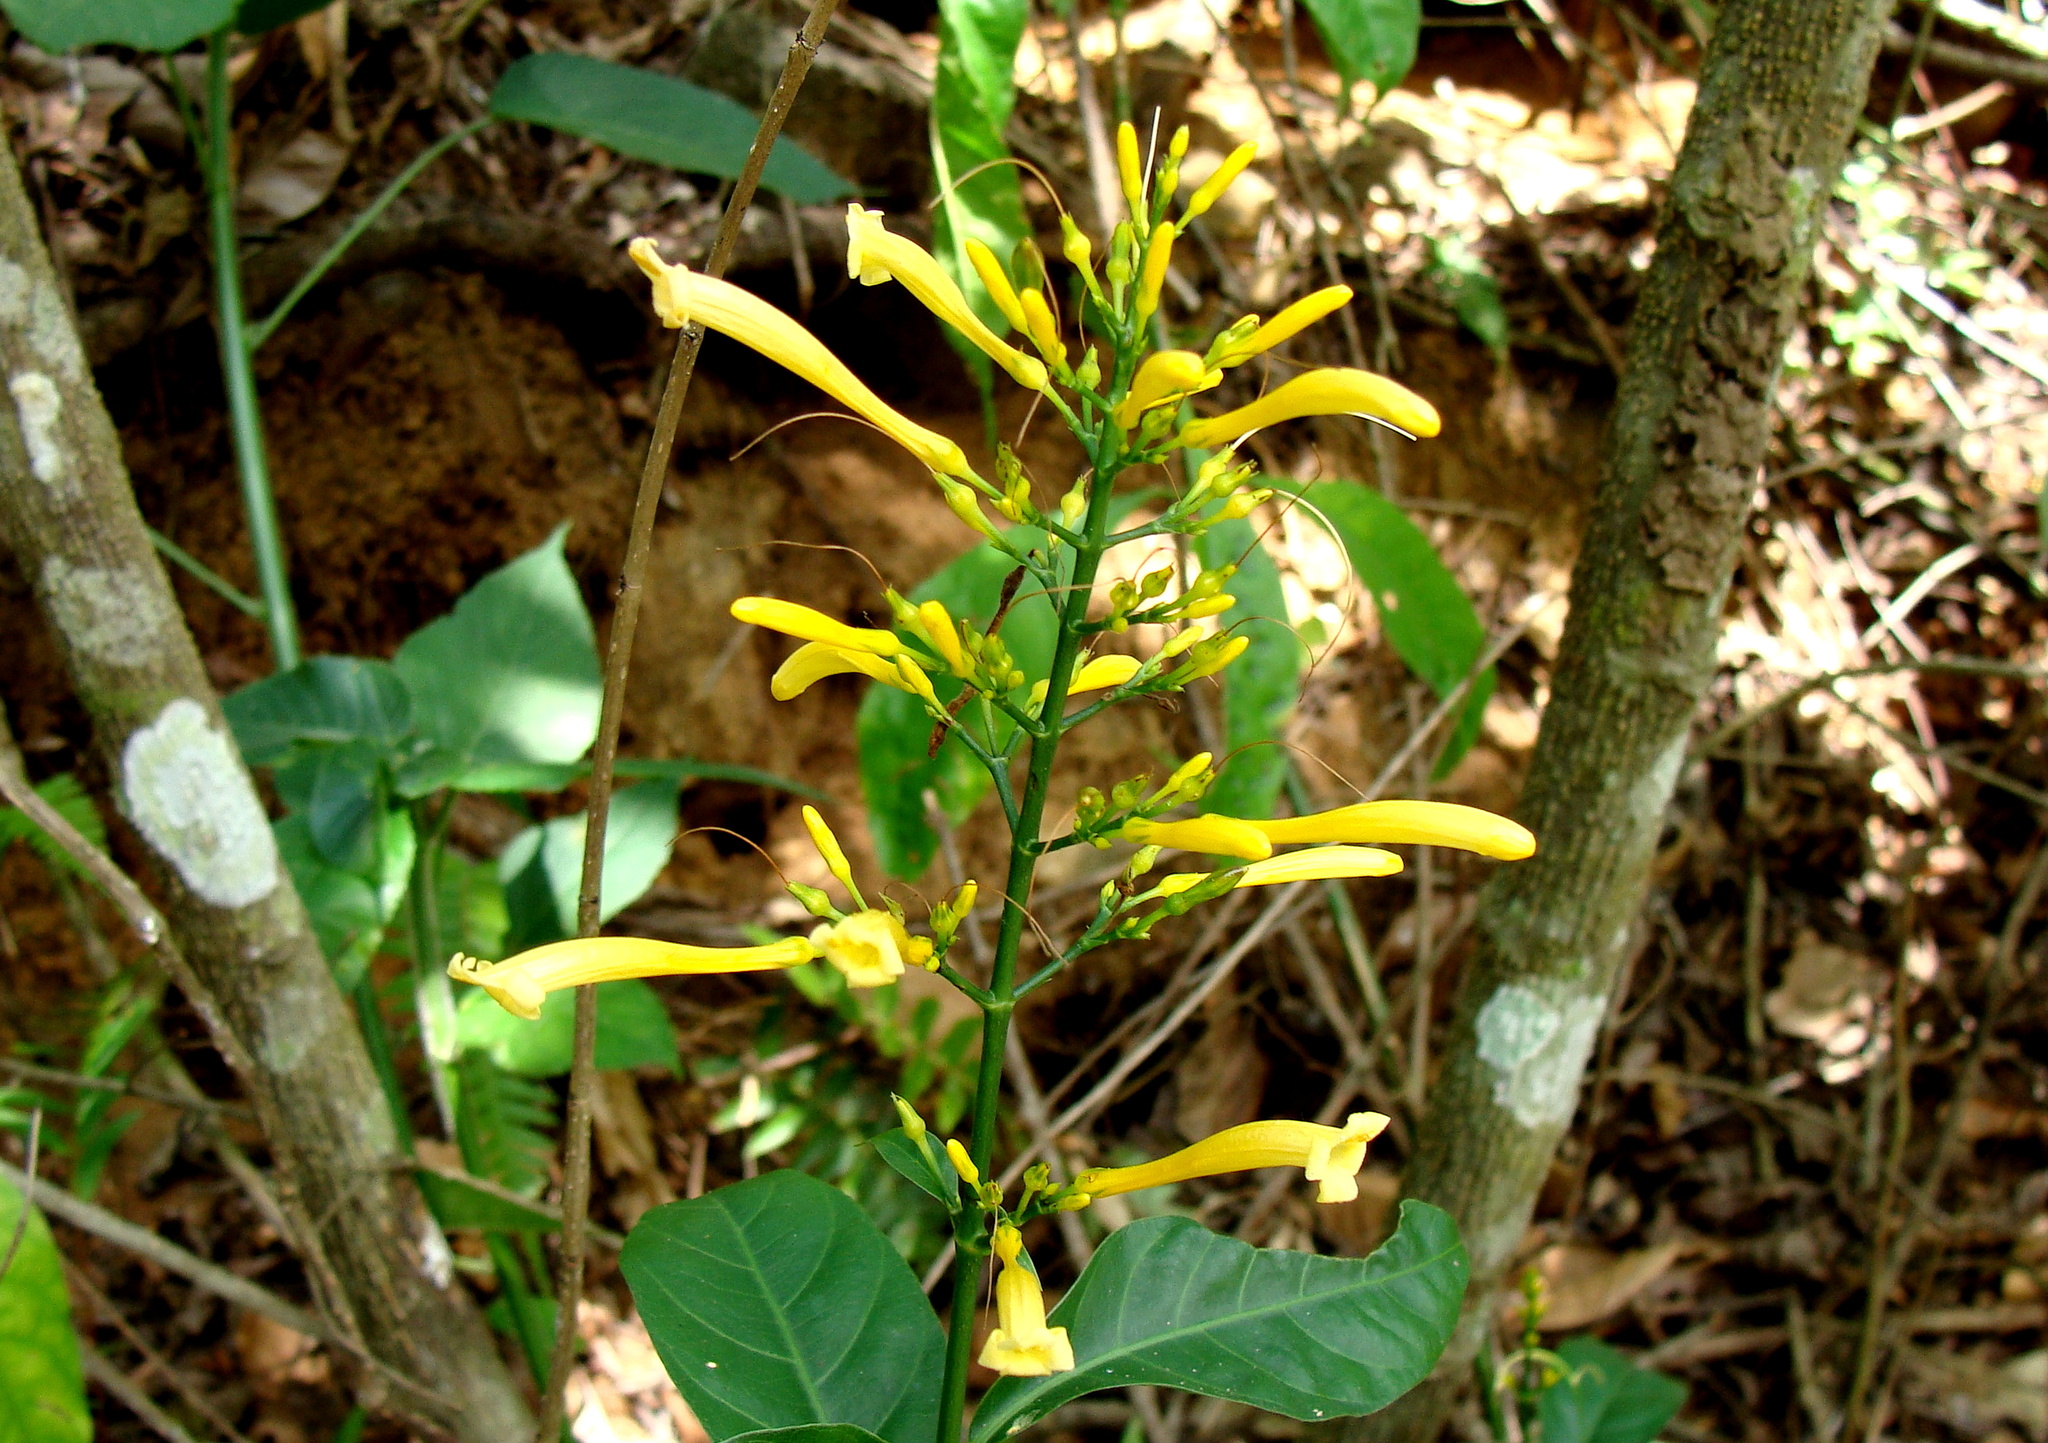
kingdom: Plantae
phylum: Tracheophyta
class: Magnoliopsida
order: Lamiales
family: Acanthaceae
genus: Odontonema
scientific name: Odontonema glabrum
